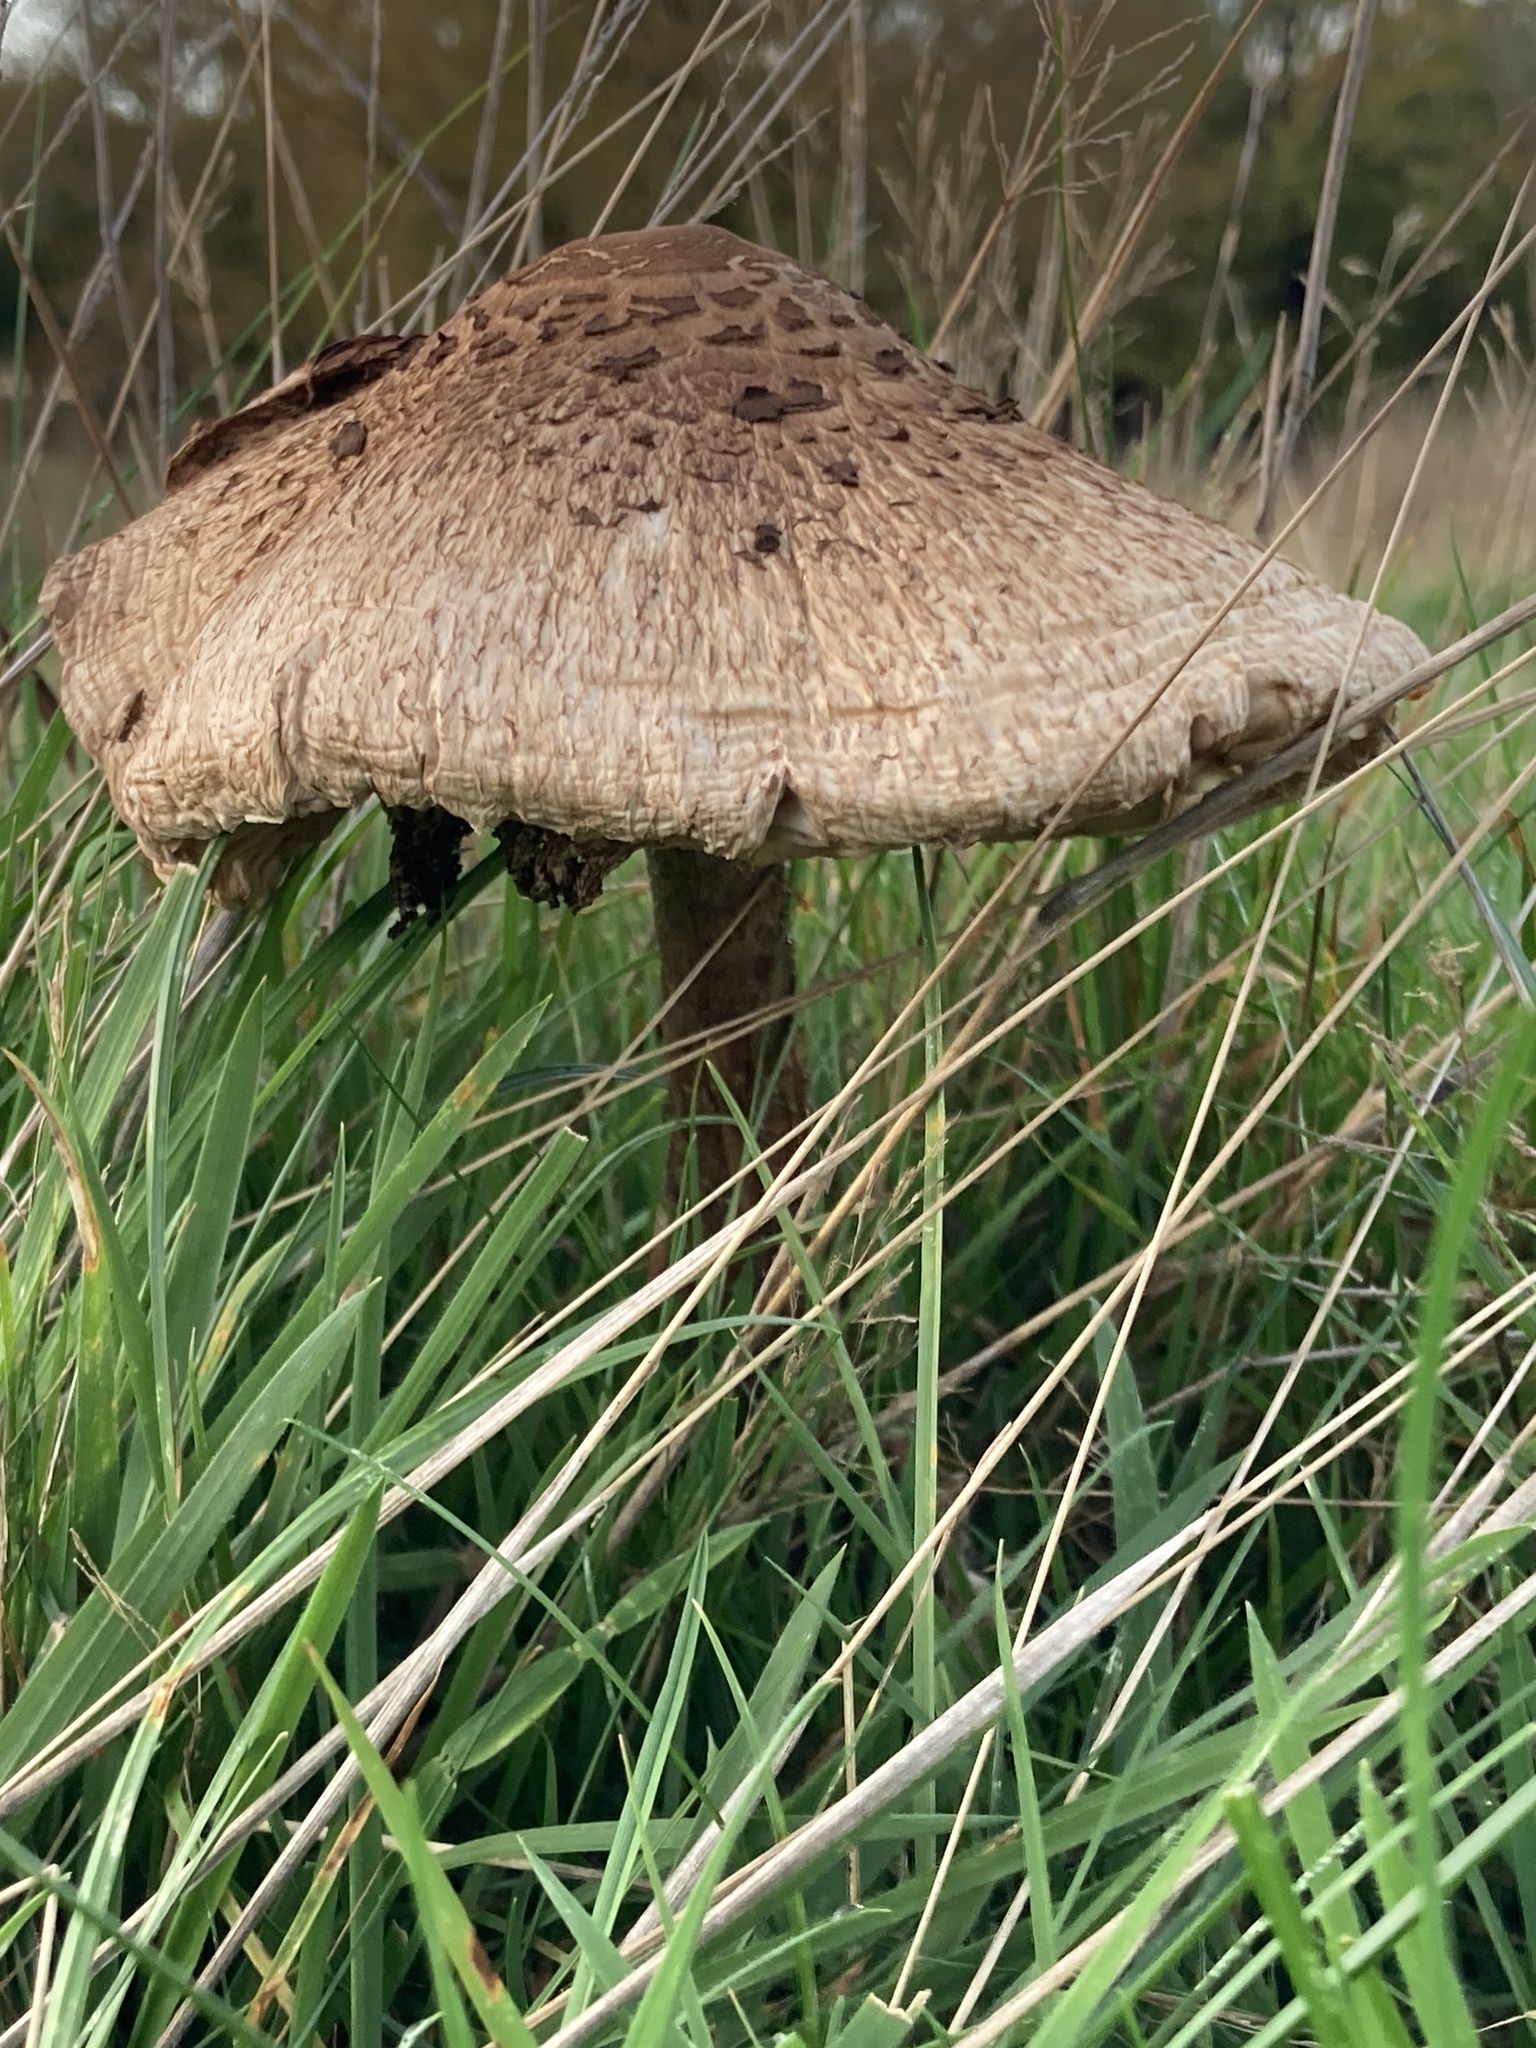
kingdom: Fungi
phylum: Basidiomycota
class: Agaricomycetes
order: Agaricales
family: Agaricaceae
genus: Macrolepiota
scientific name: Macrolepiota procera
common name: Parasol
